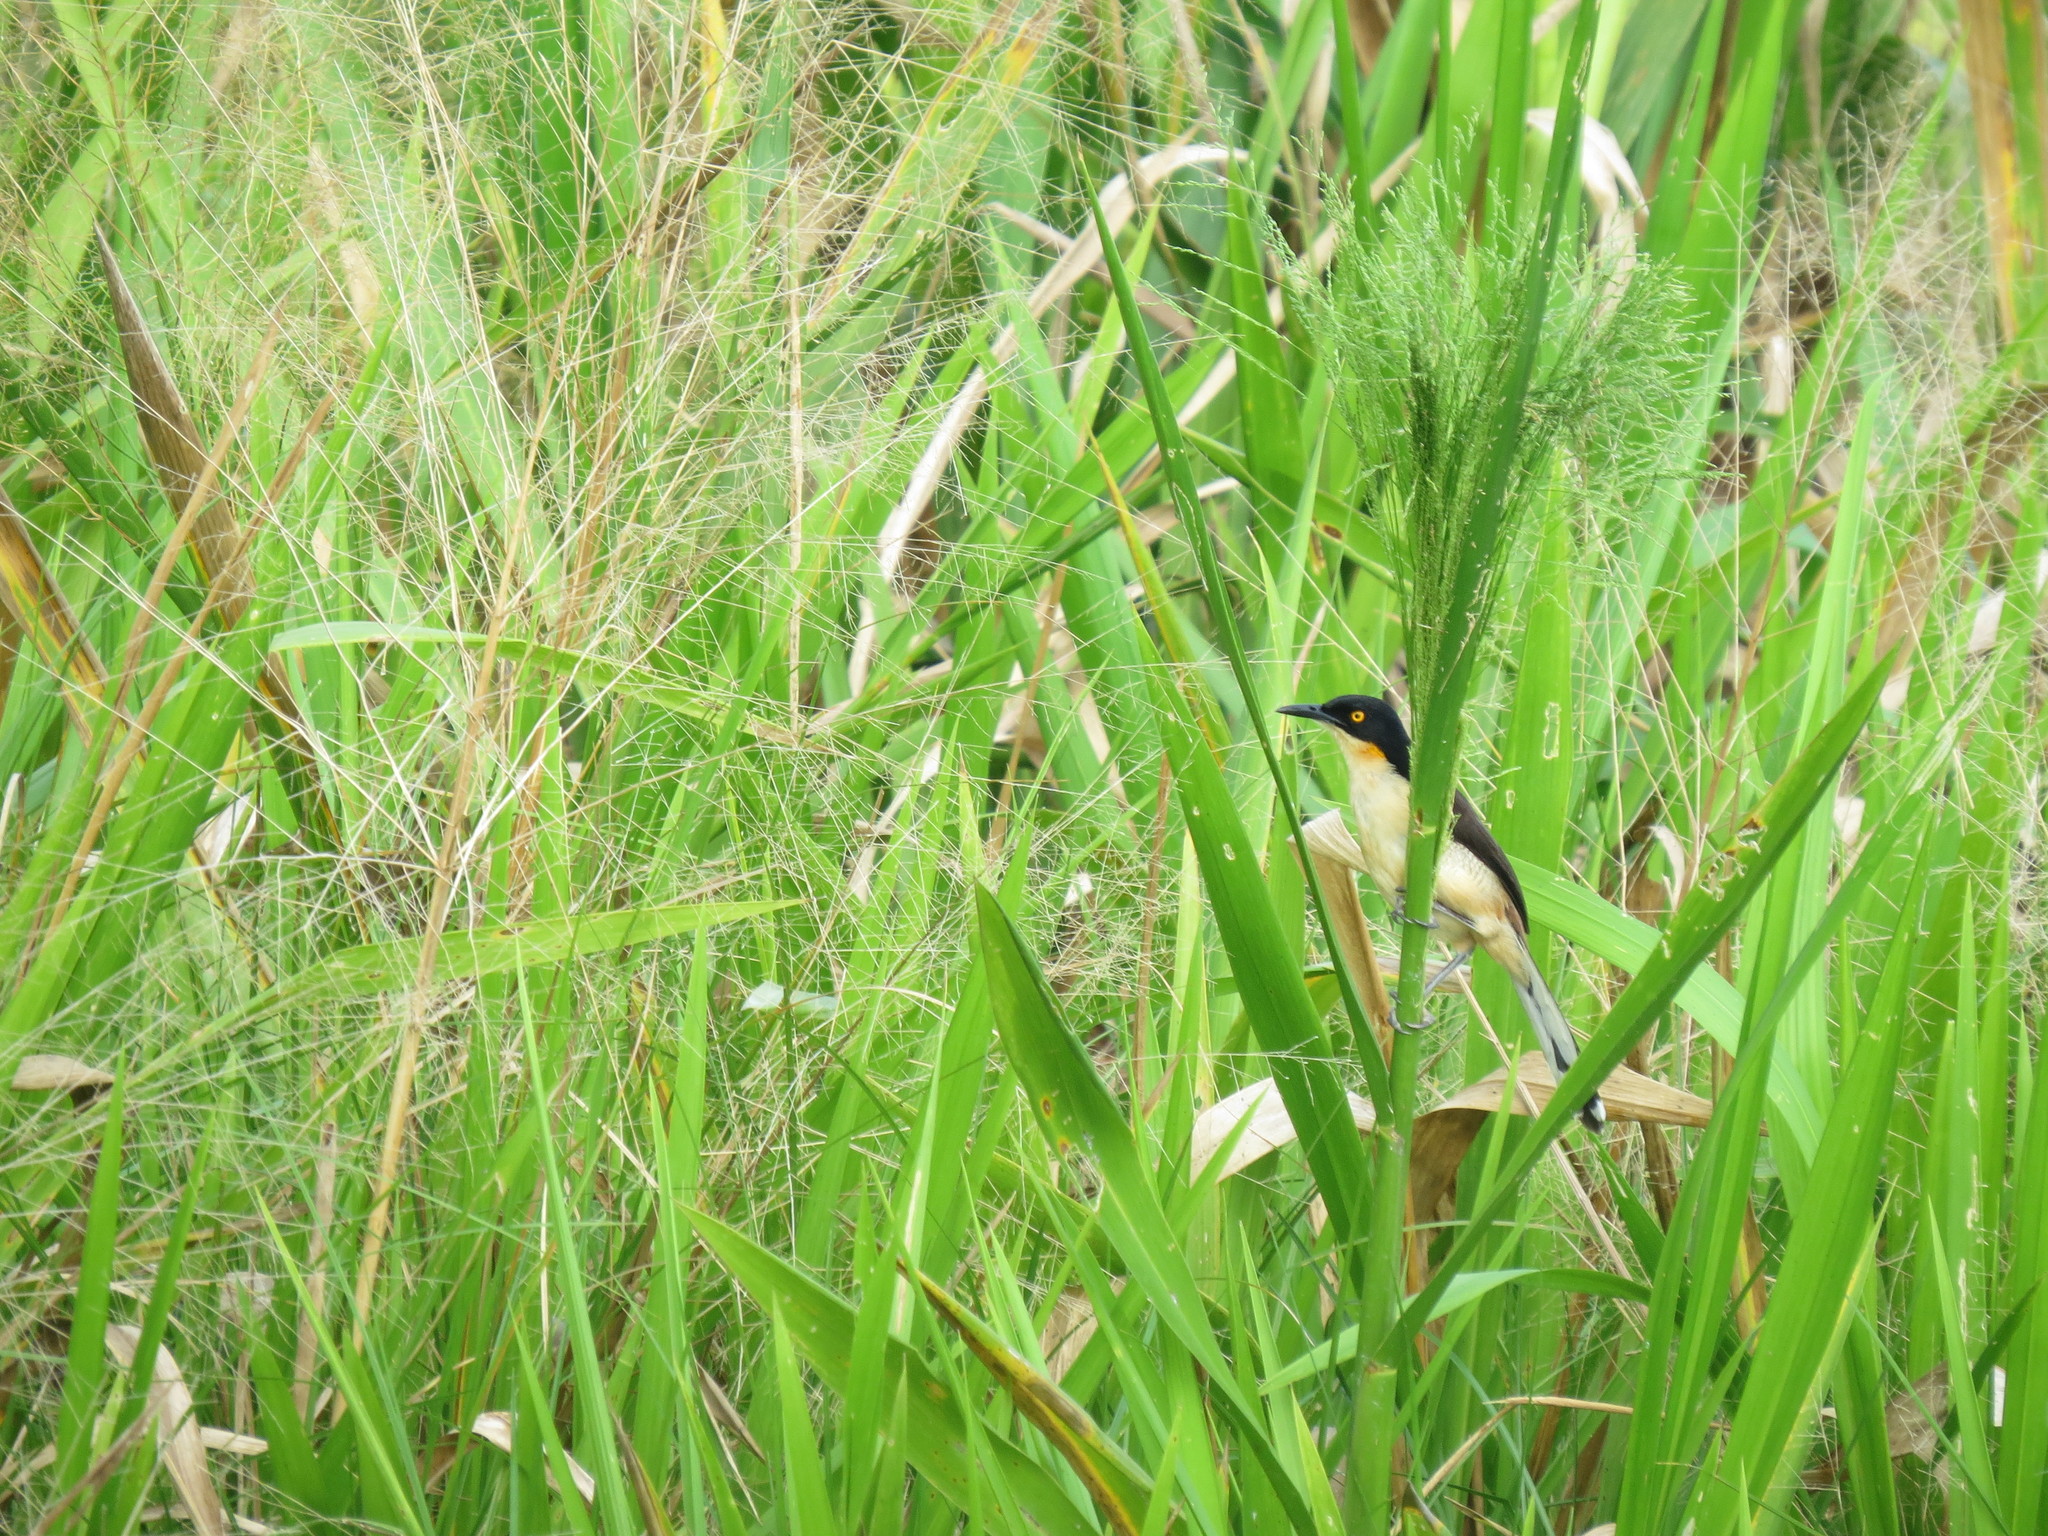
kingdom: Animalia
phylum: Chordata
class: Aves
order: Passeriformes
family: Donacobiidae
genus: Donacobius
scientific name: Donacobius atricapilla
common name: Black-capped donacobius
